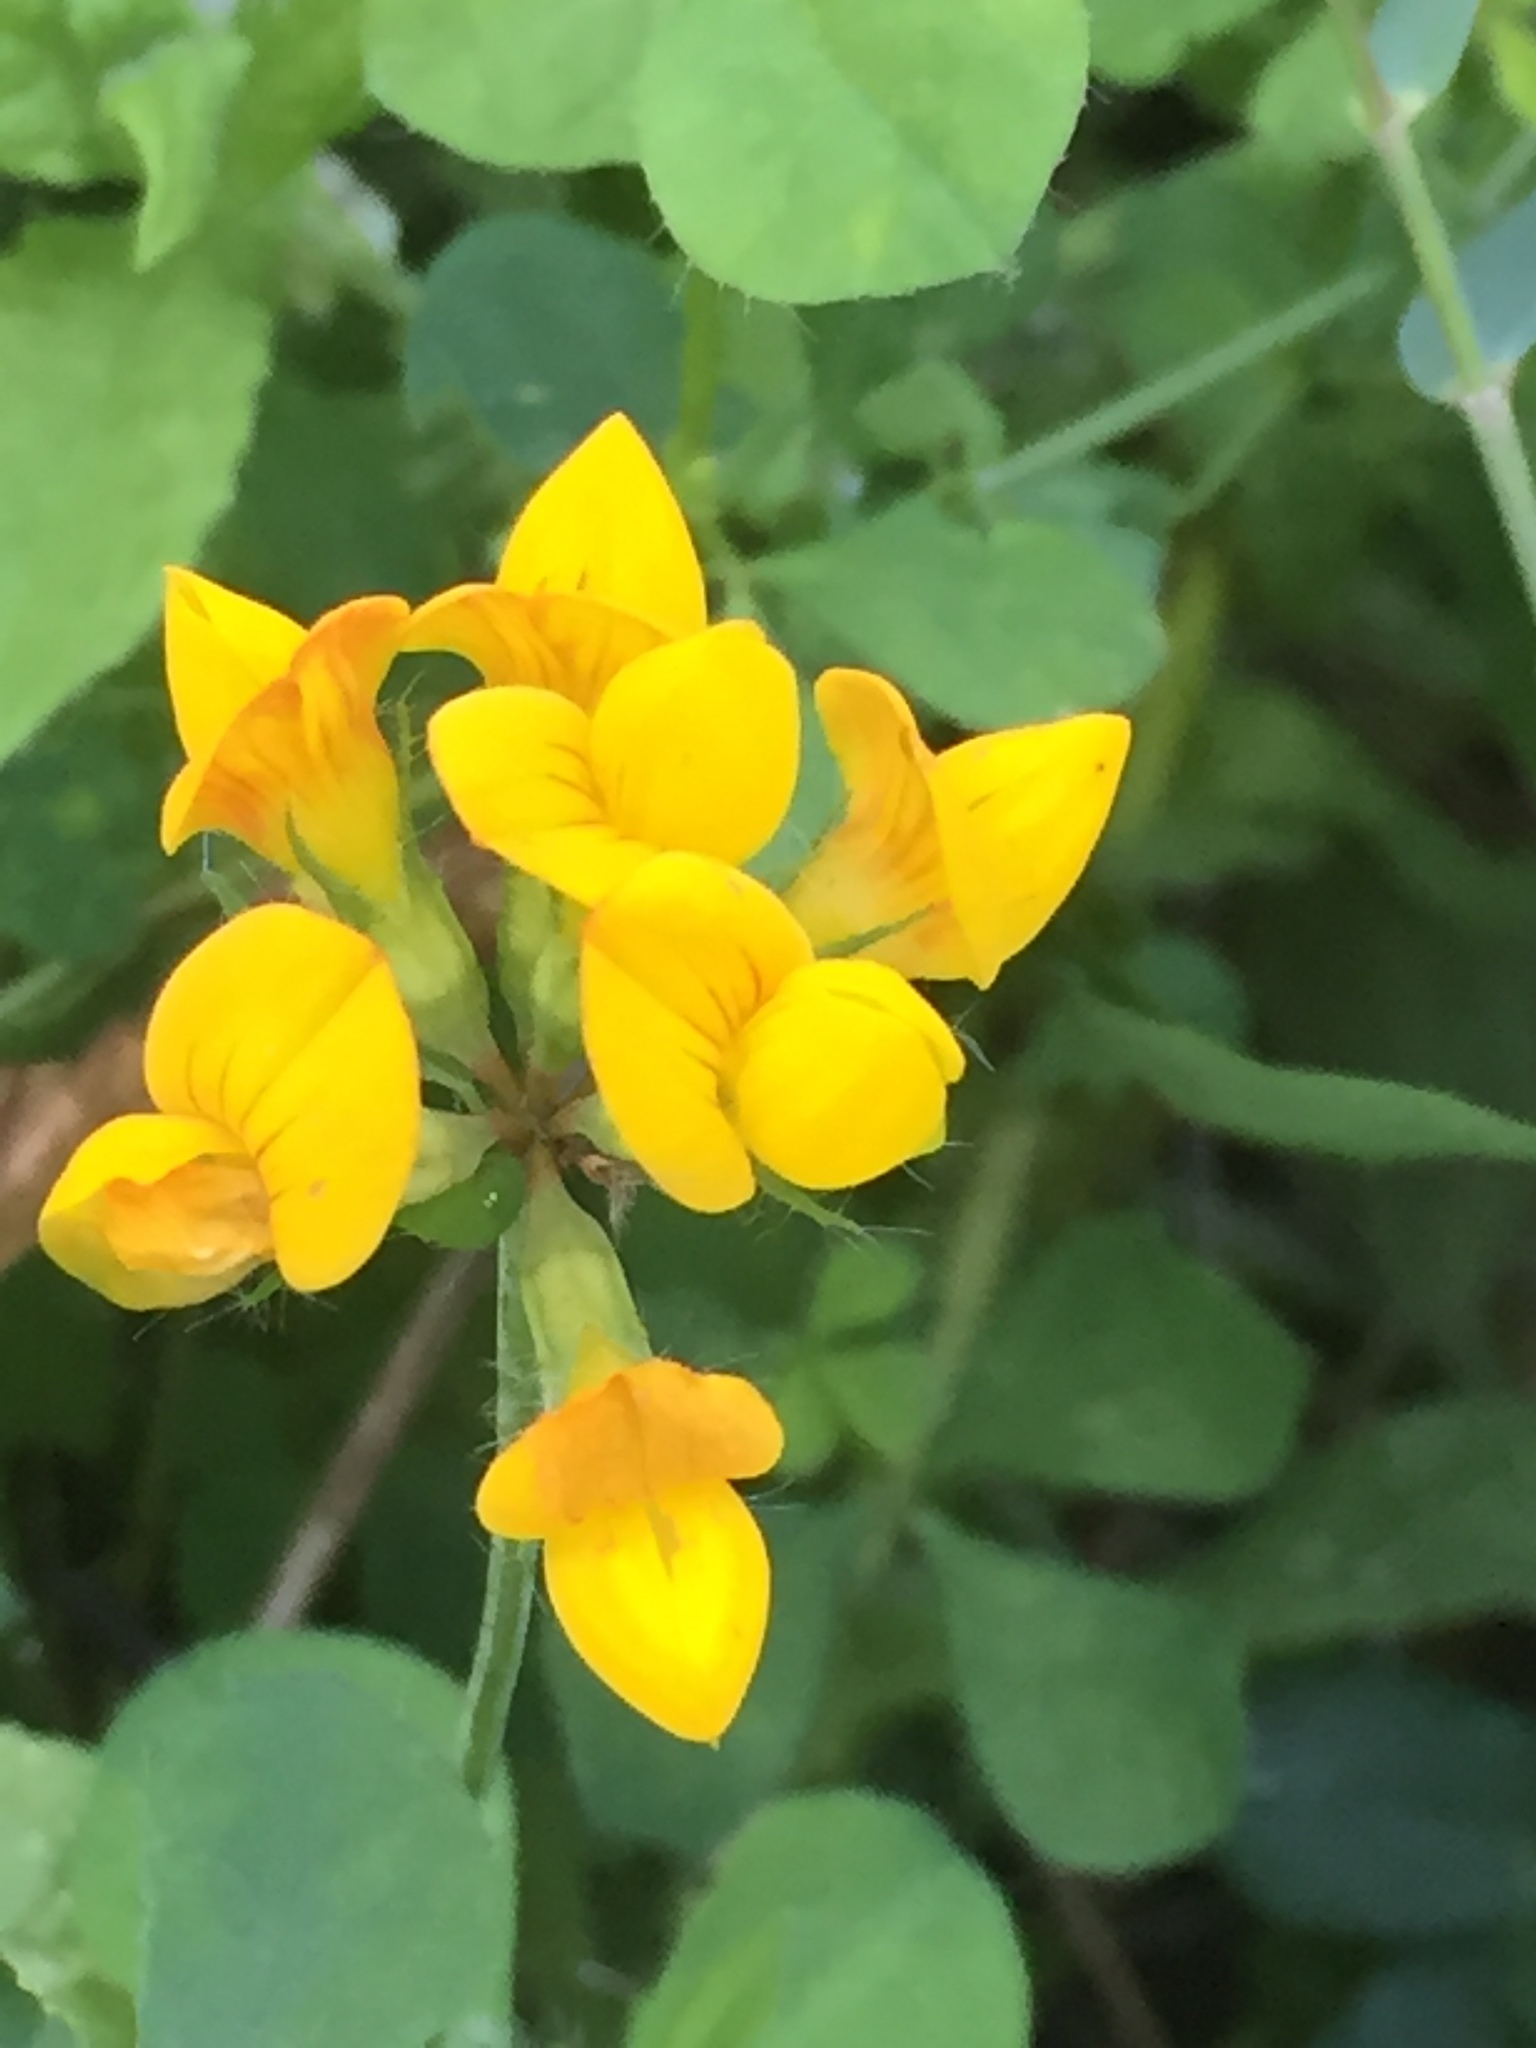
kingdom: Plantae
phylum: Tracheophyta
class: Magnoliopsida
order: Fabales
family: Fabaceae
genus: Lotus
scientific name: Lotus corniculatus
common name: Common bird's-foot-trefoil
